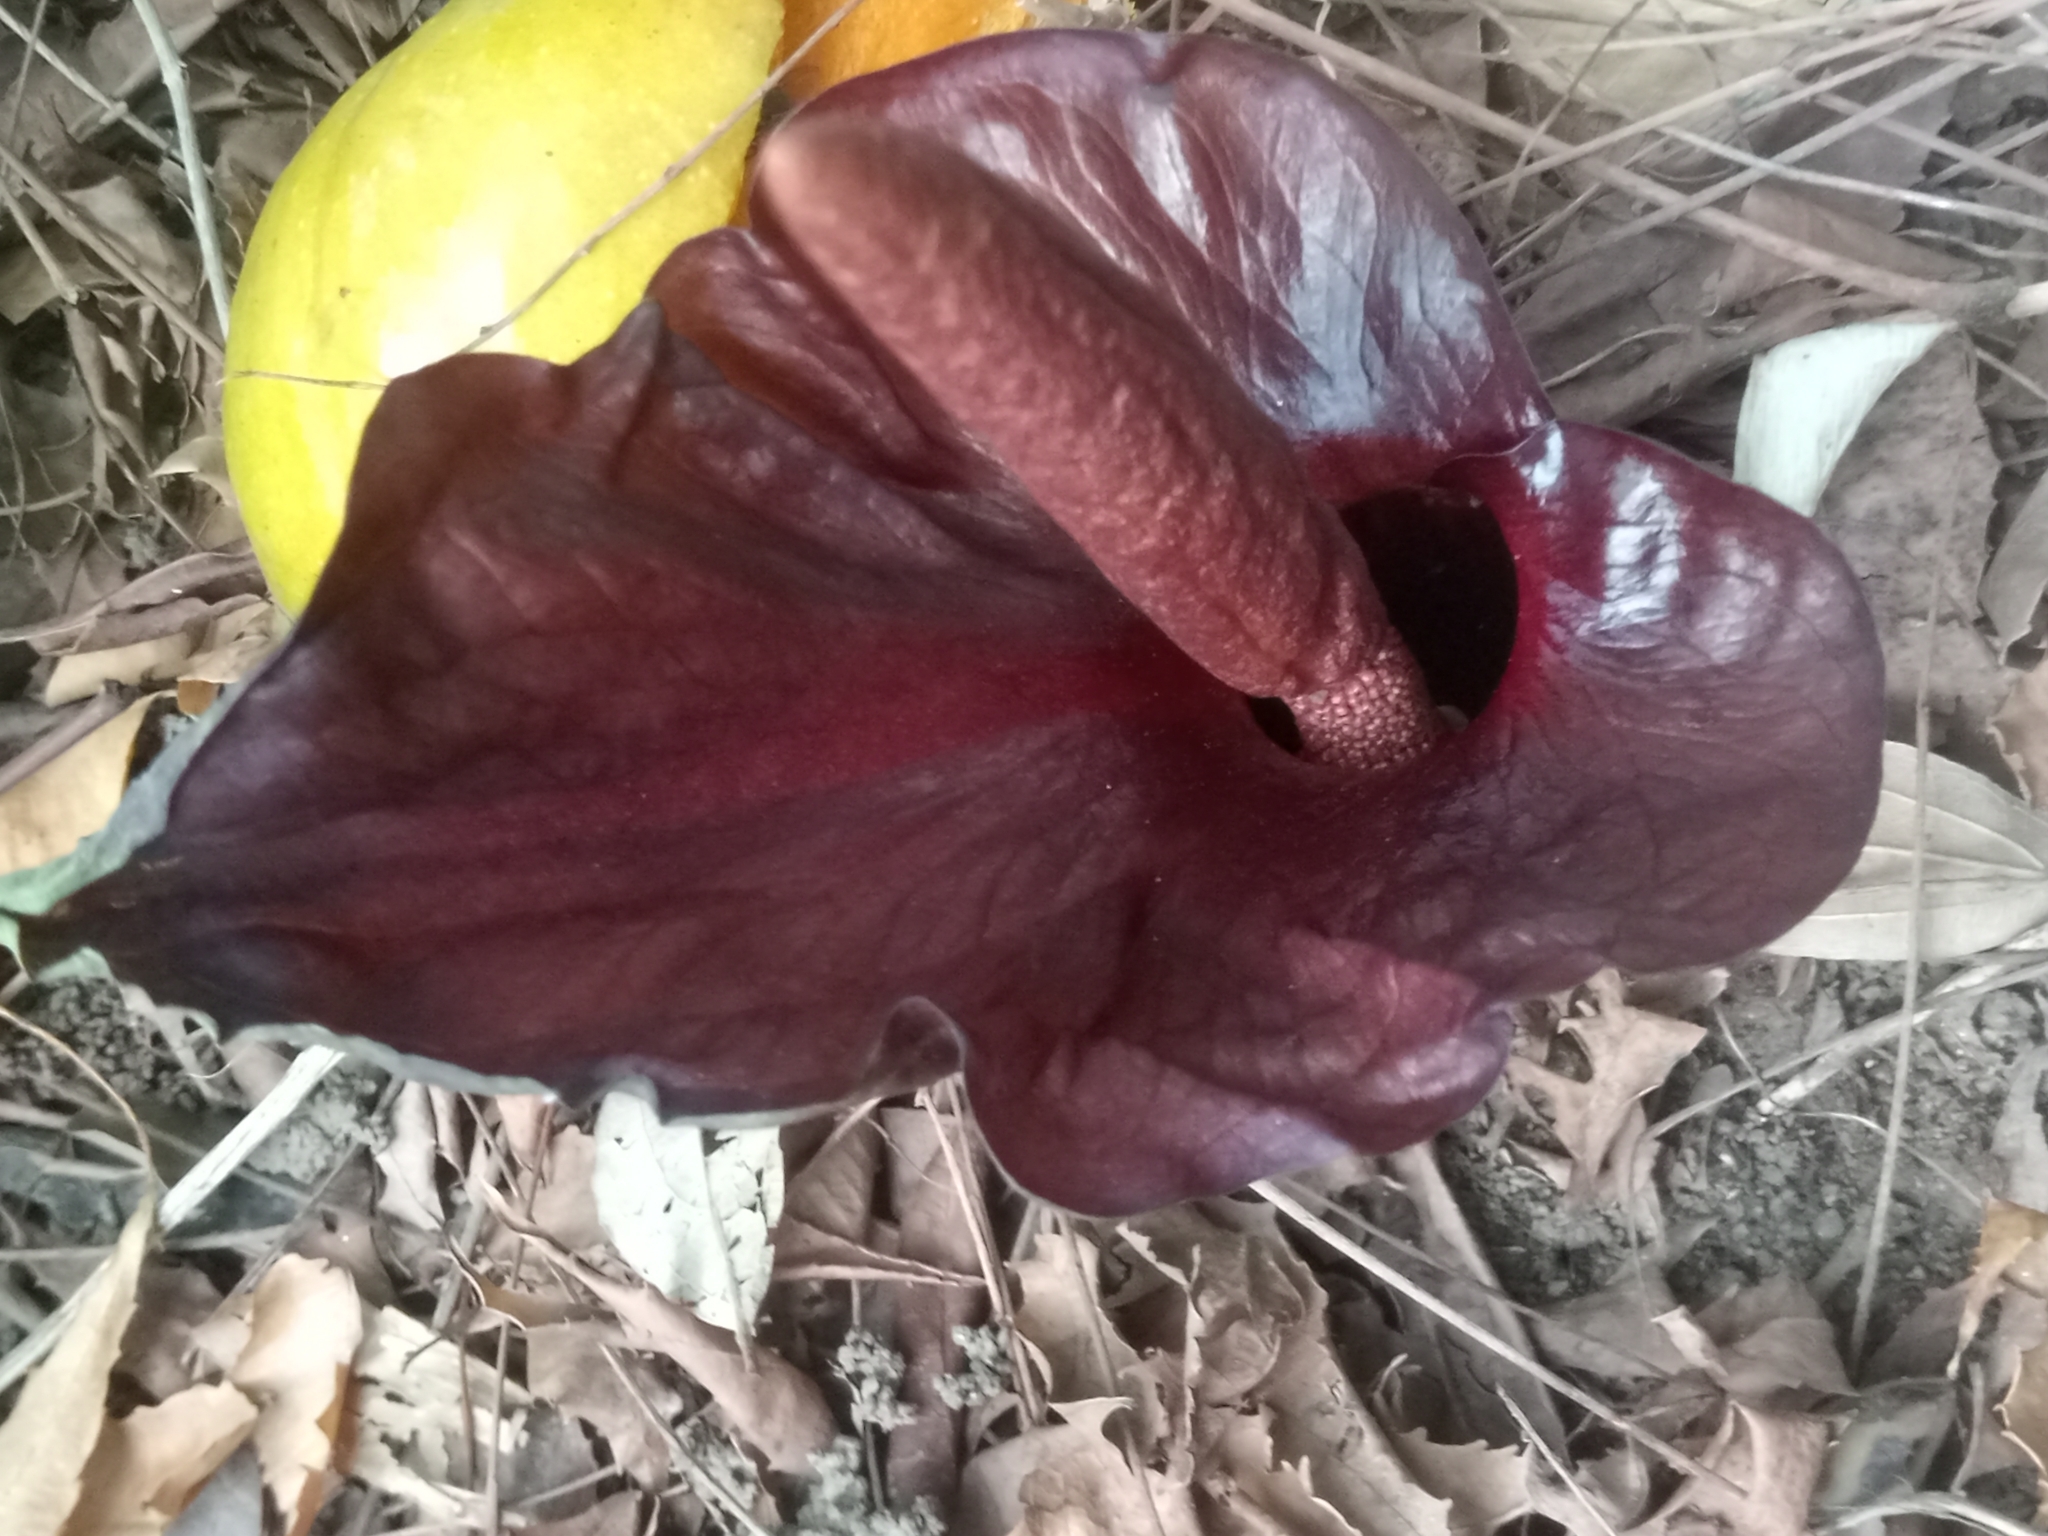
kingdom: Plantae
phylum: Tracheophyta
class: Liliopsida
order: Alismatales
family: Araceae
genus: Amorphophallus
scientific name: Amorphophallus abyssinicus
